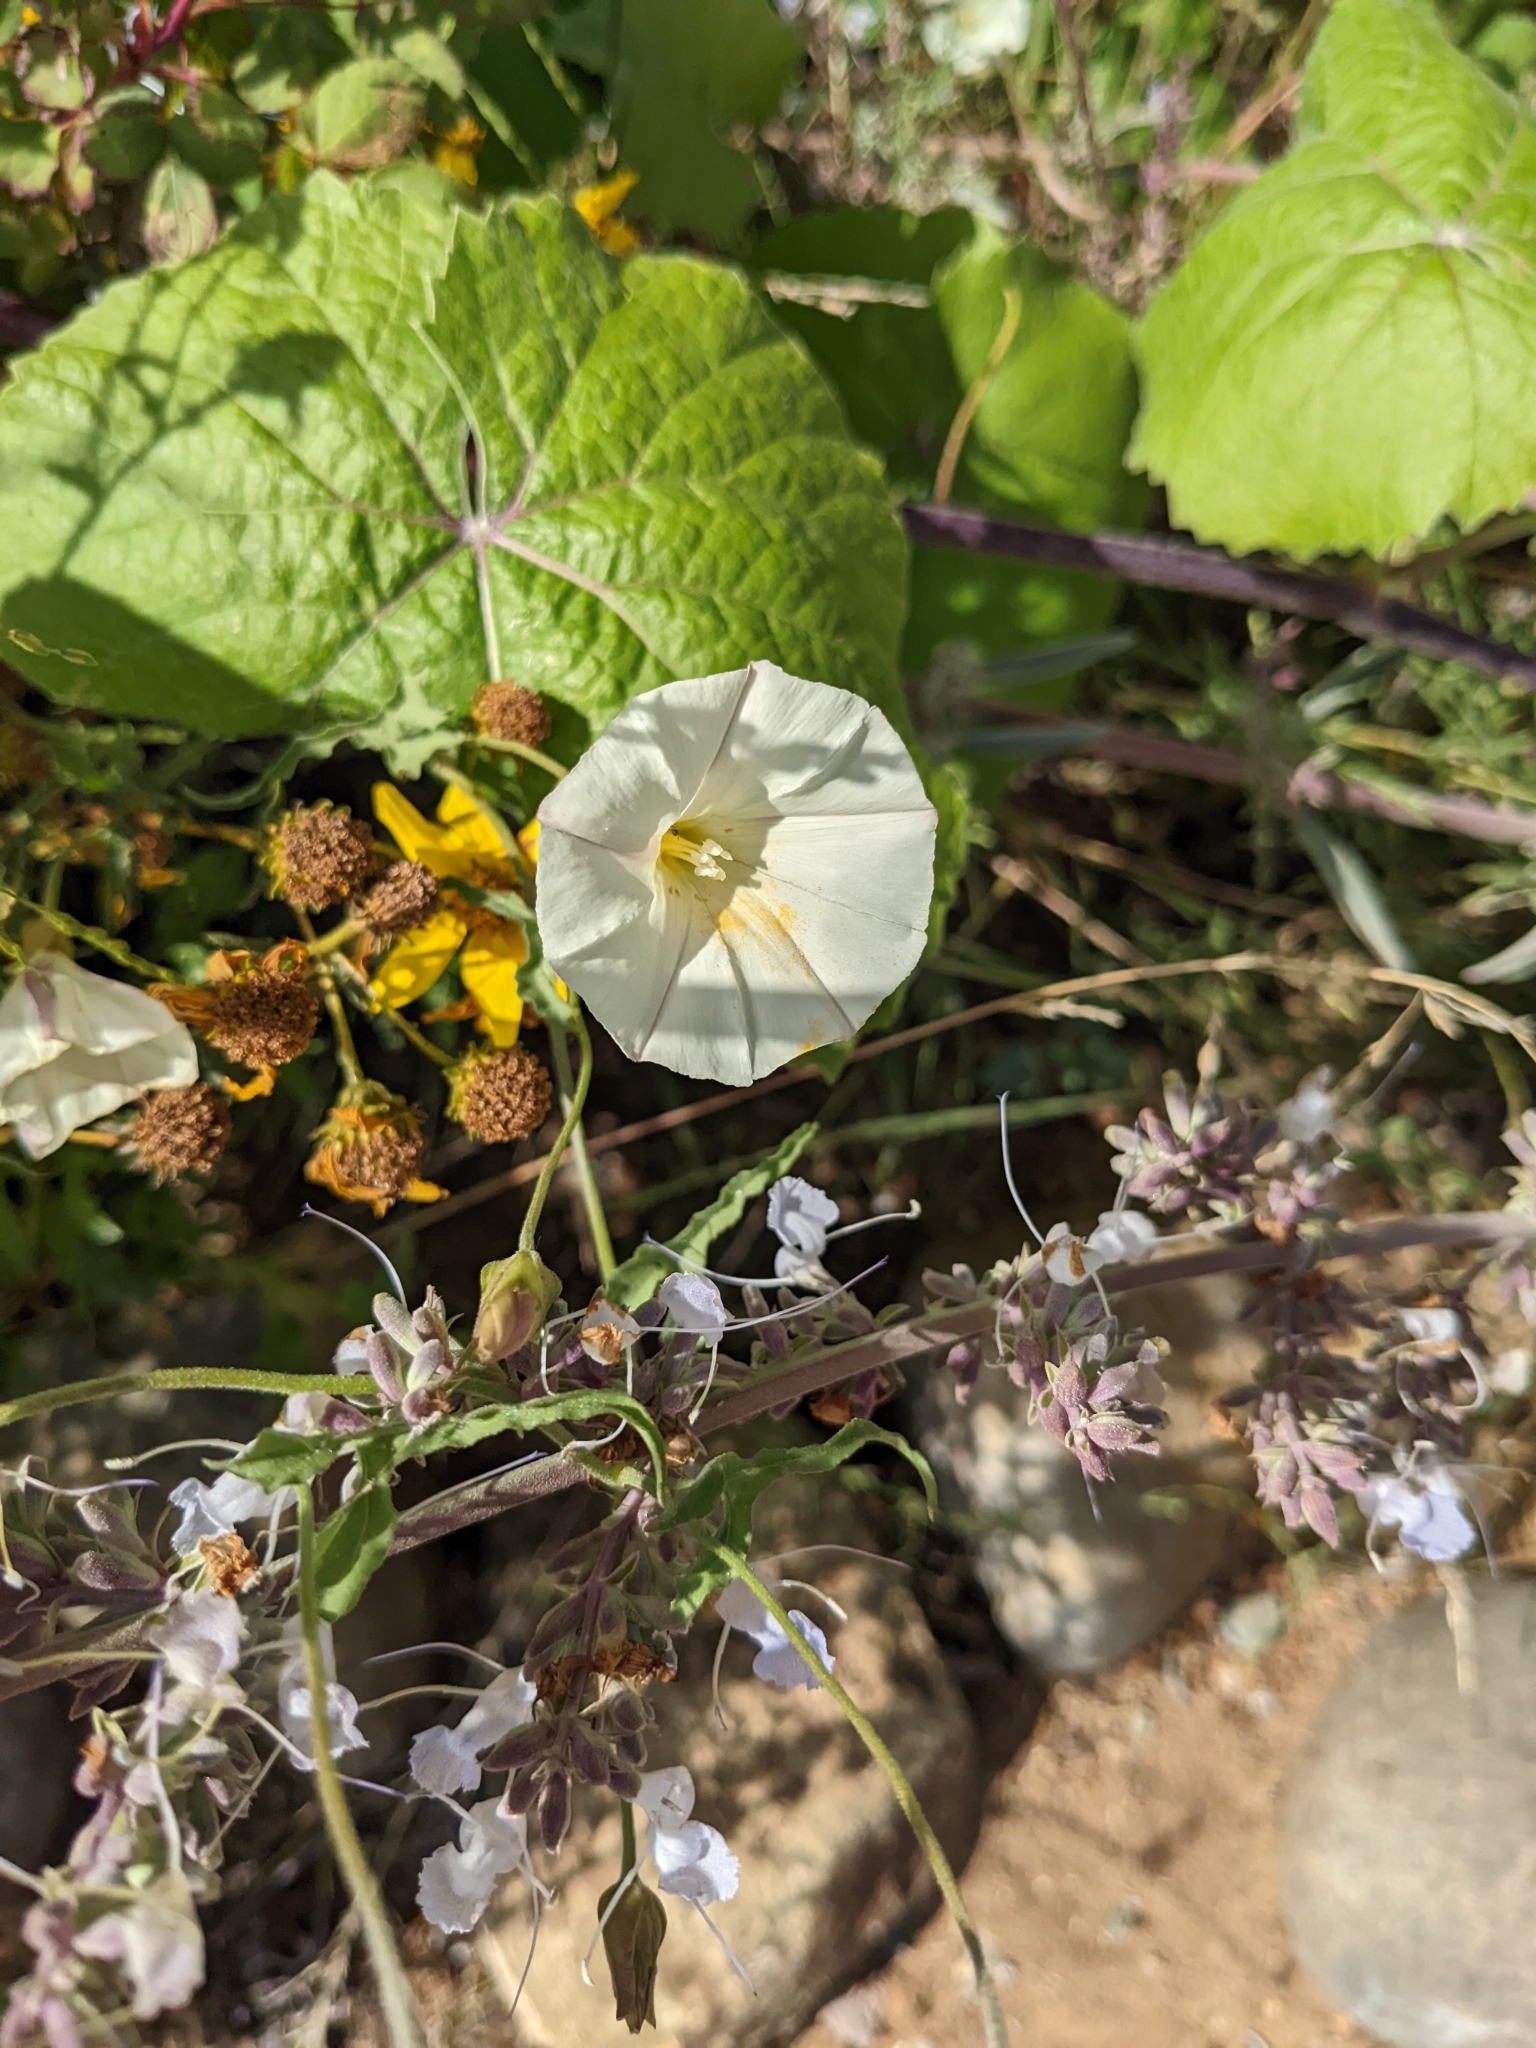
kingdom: Plantae
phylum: Tracheophyta
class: Magnoliopsida
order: Solanales
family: Convolvulaceae
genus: Calystegia
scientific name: Calystegia macrostegia
